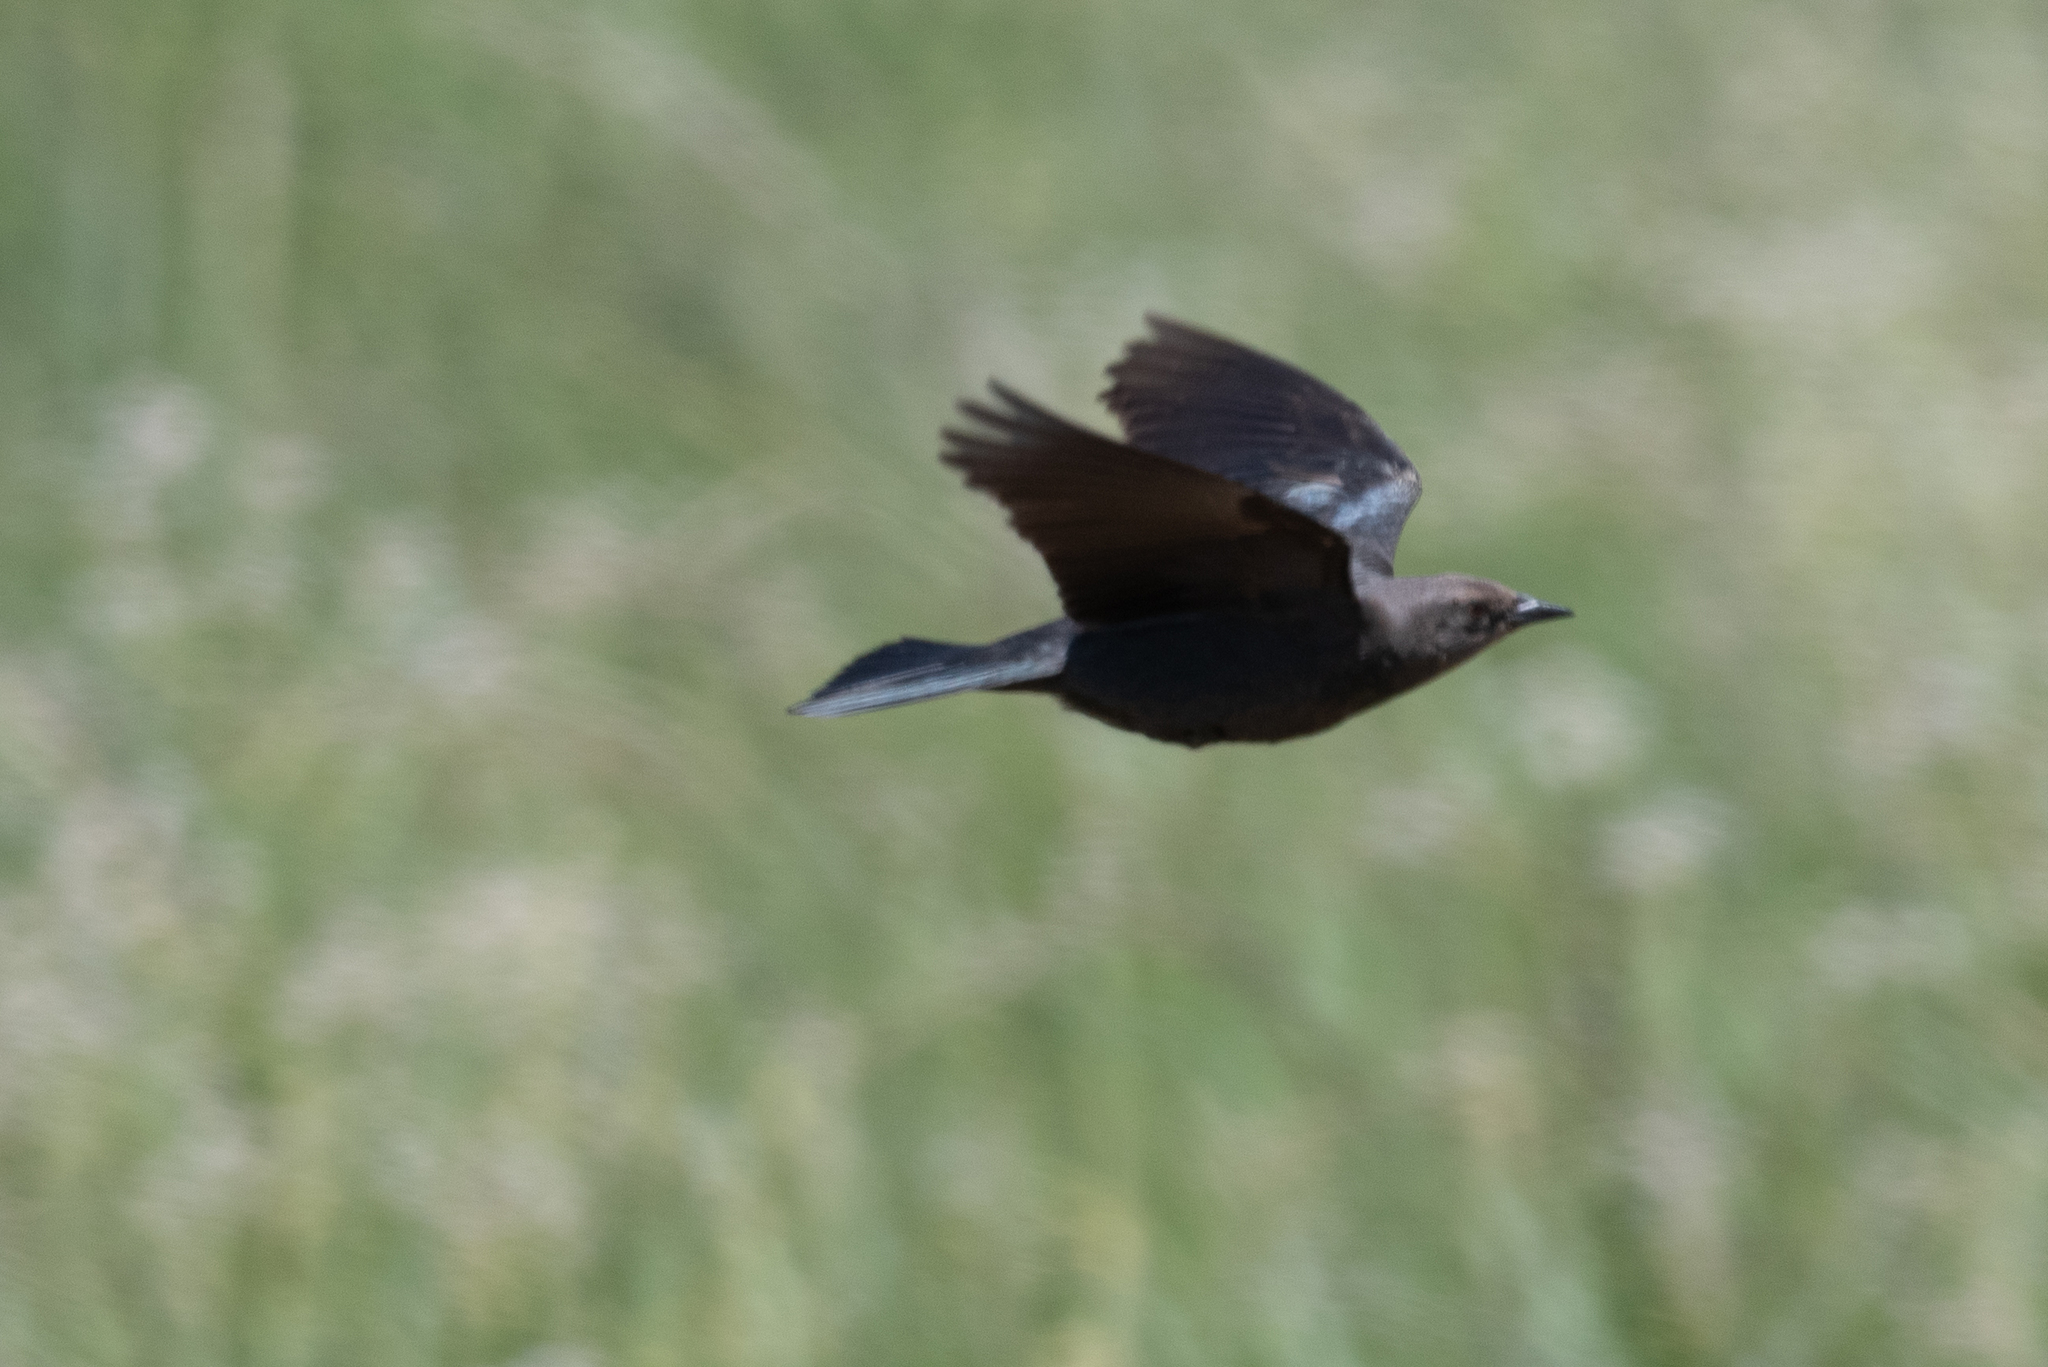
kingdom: Animalia
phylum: Chordata
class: Aves
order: Passeriformes
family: Icteridae
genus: Euphagus
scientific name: Euphagus cyanocephalus
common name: Brewer's blackbird
